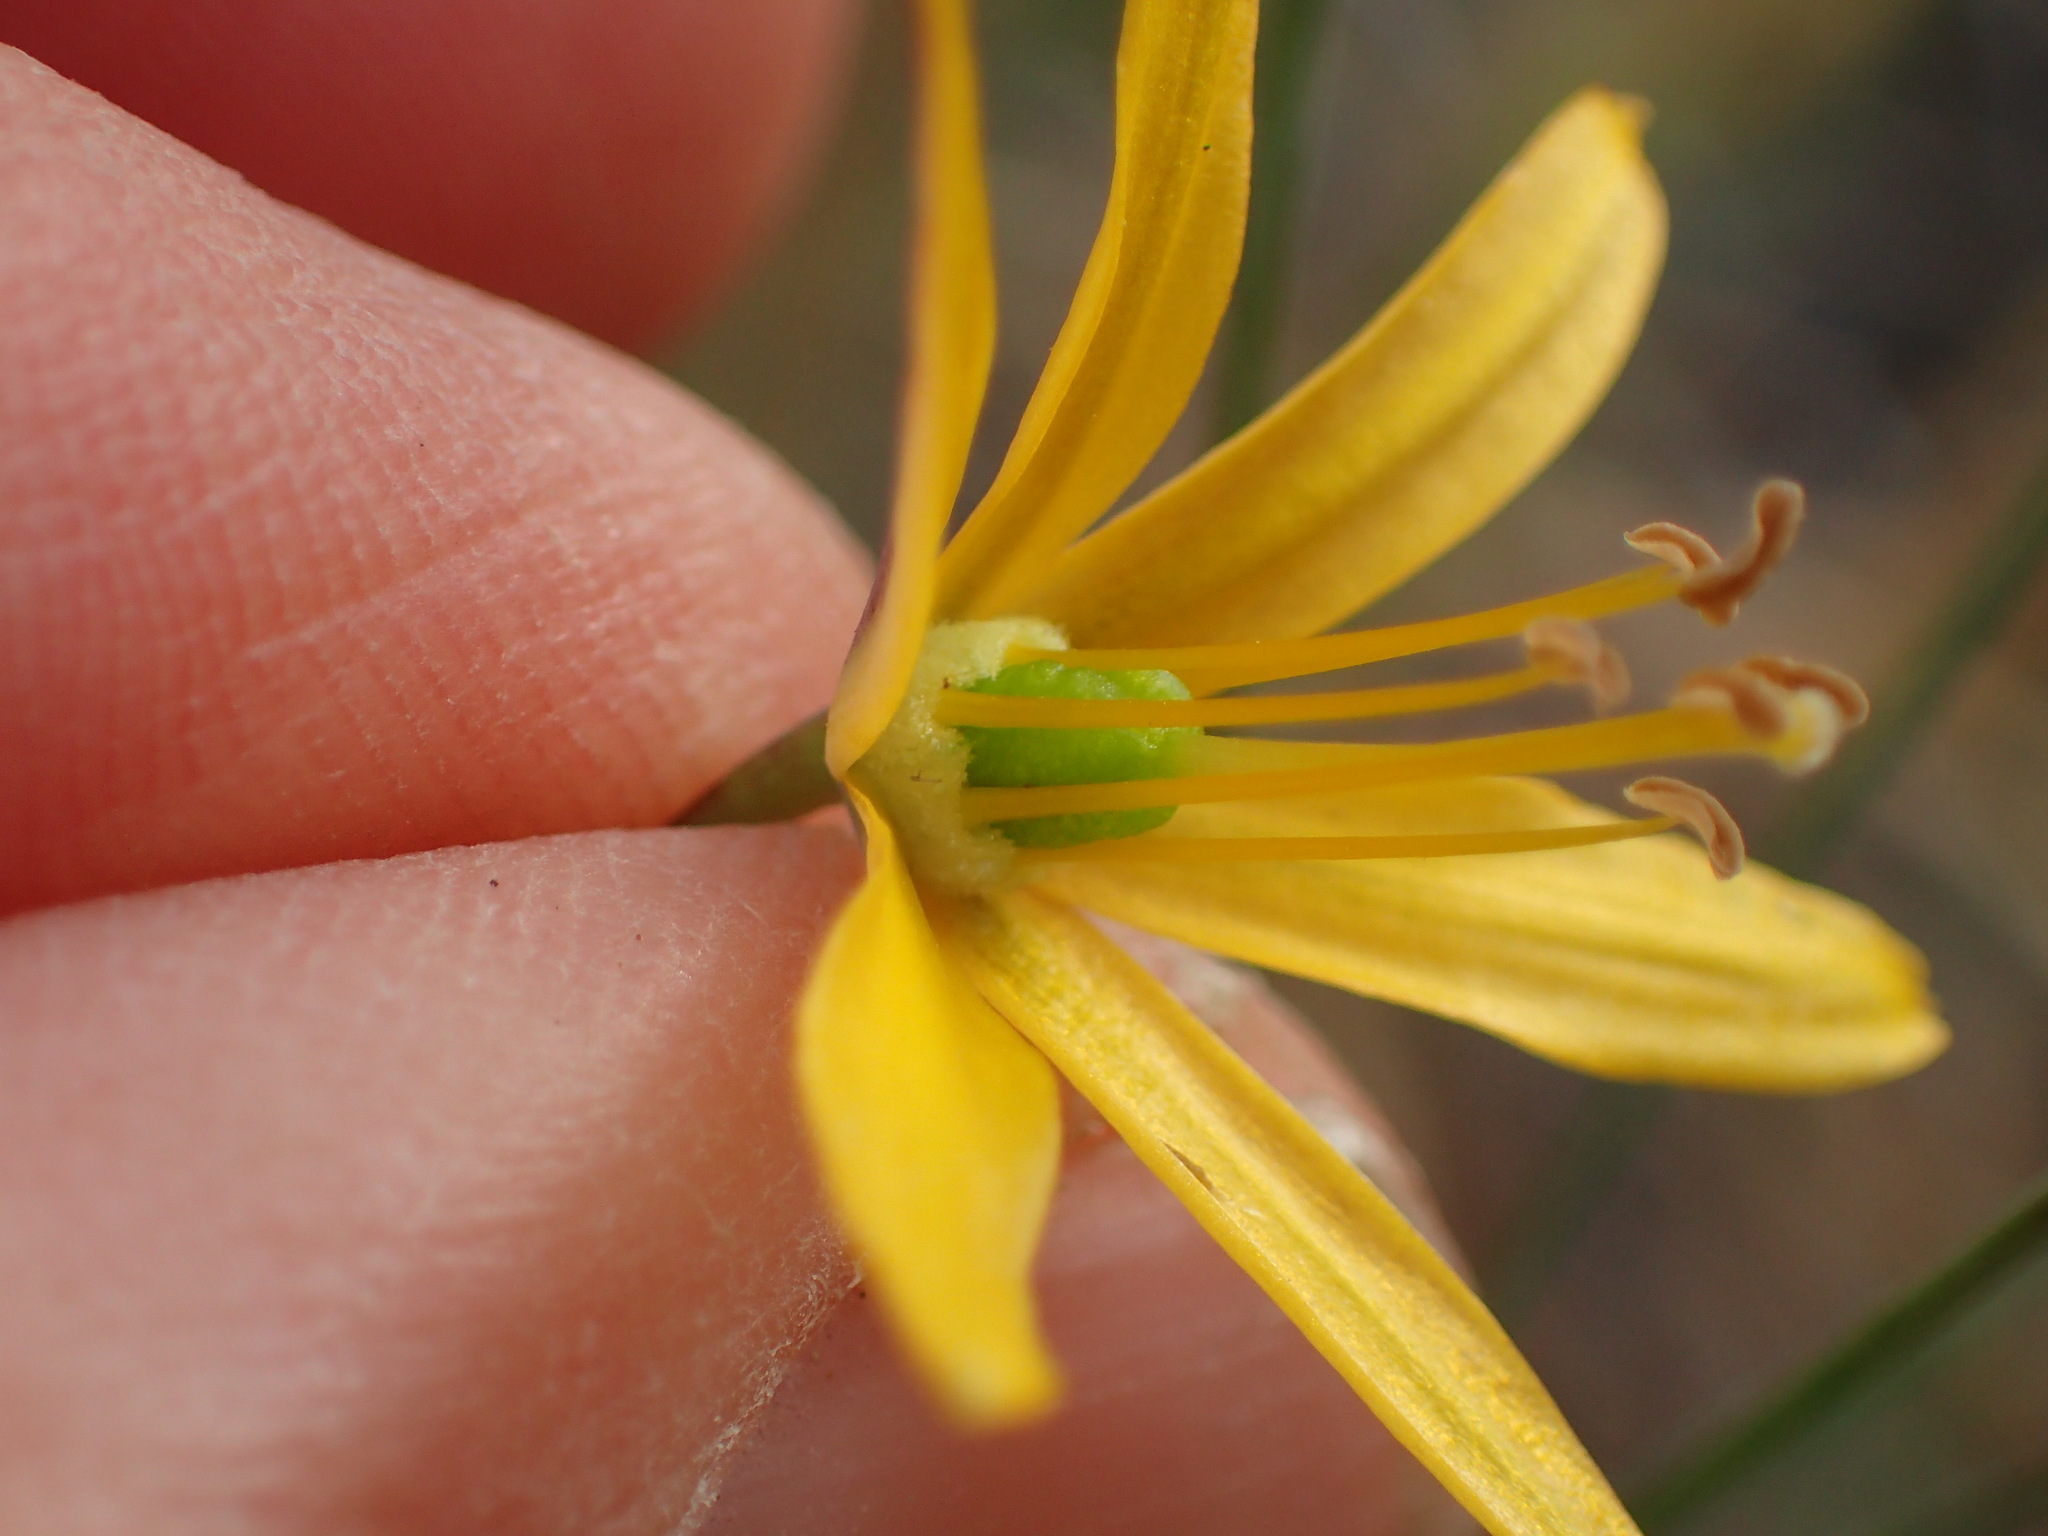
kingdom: Plantae
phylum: Tracheophyta
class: Liliopsida
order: Asparagales
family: Asparagaceae
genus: Bloomeria
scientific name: Bloomeria crocea
